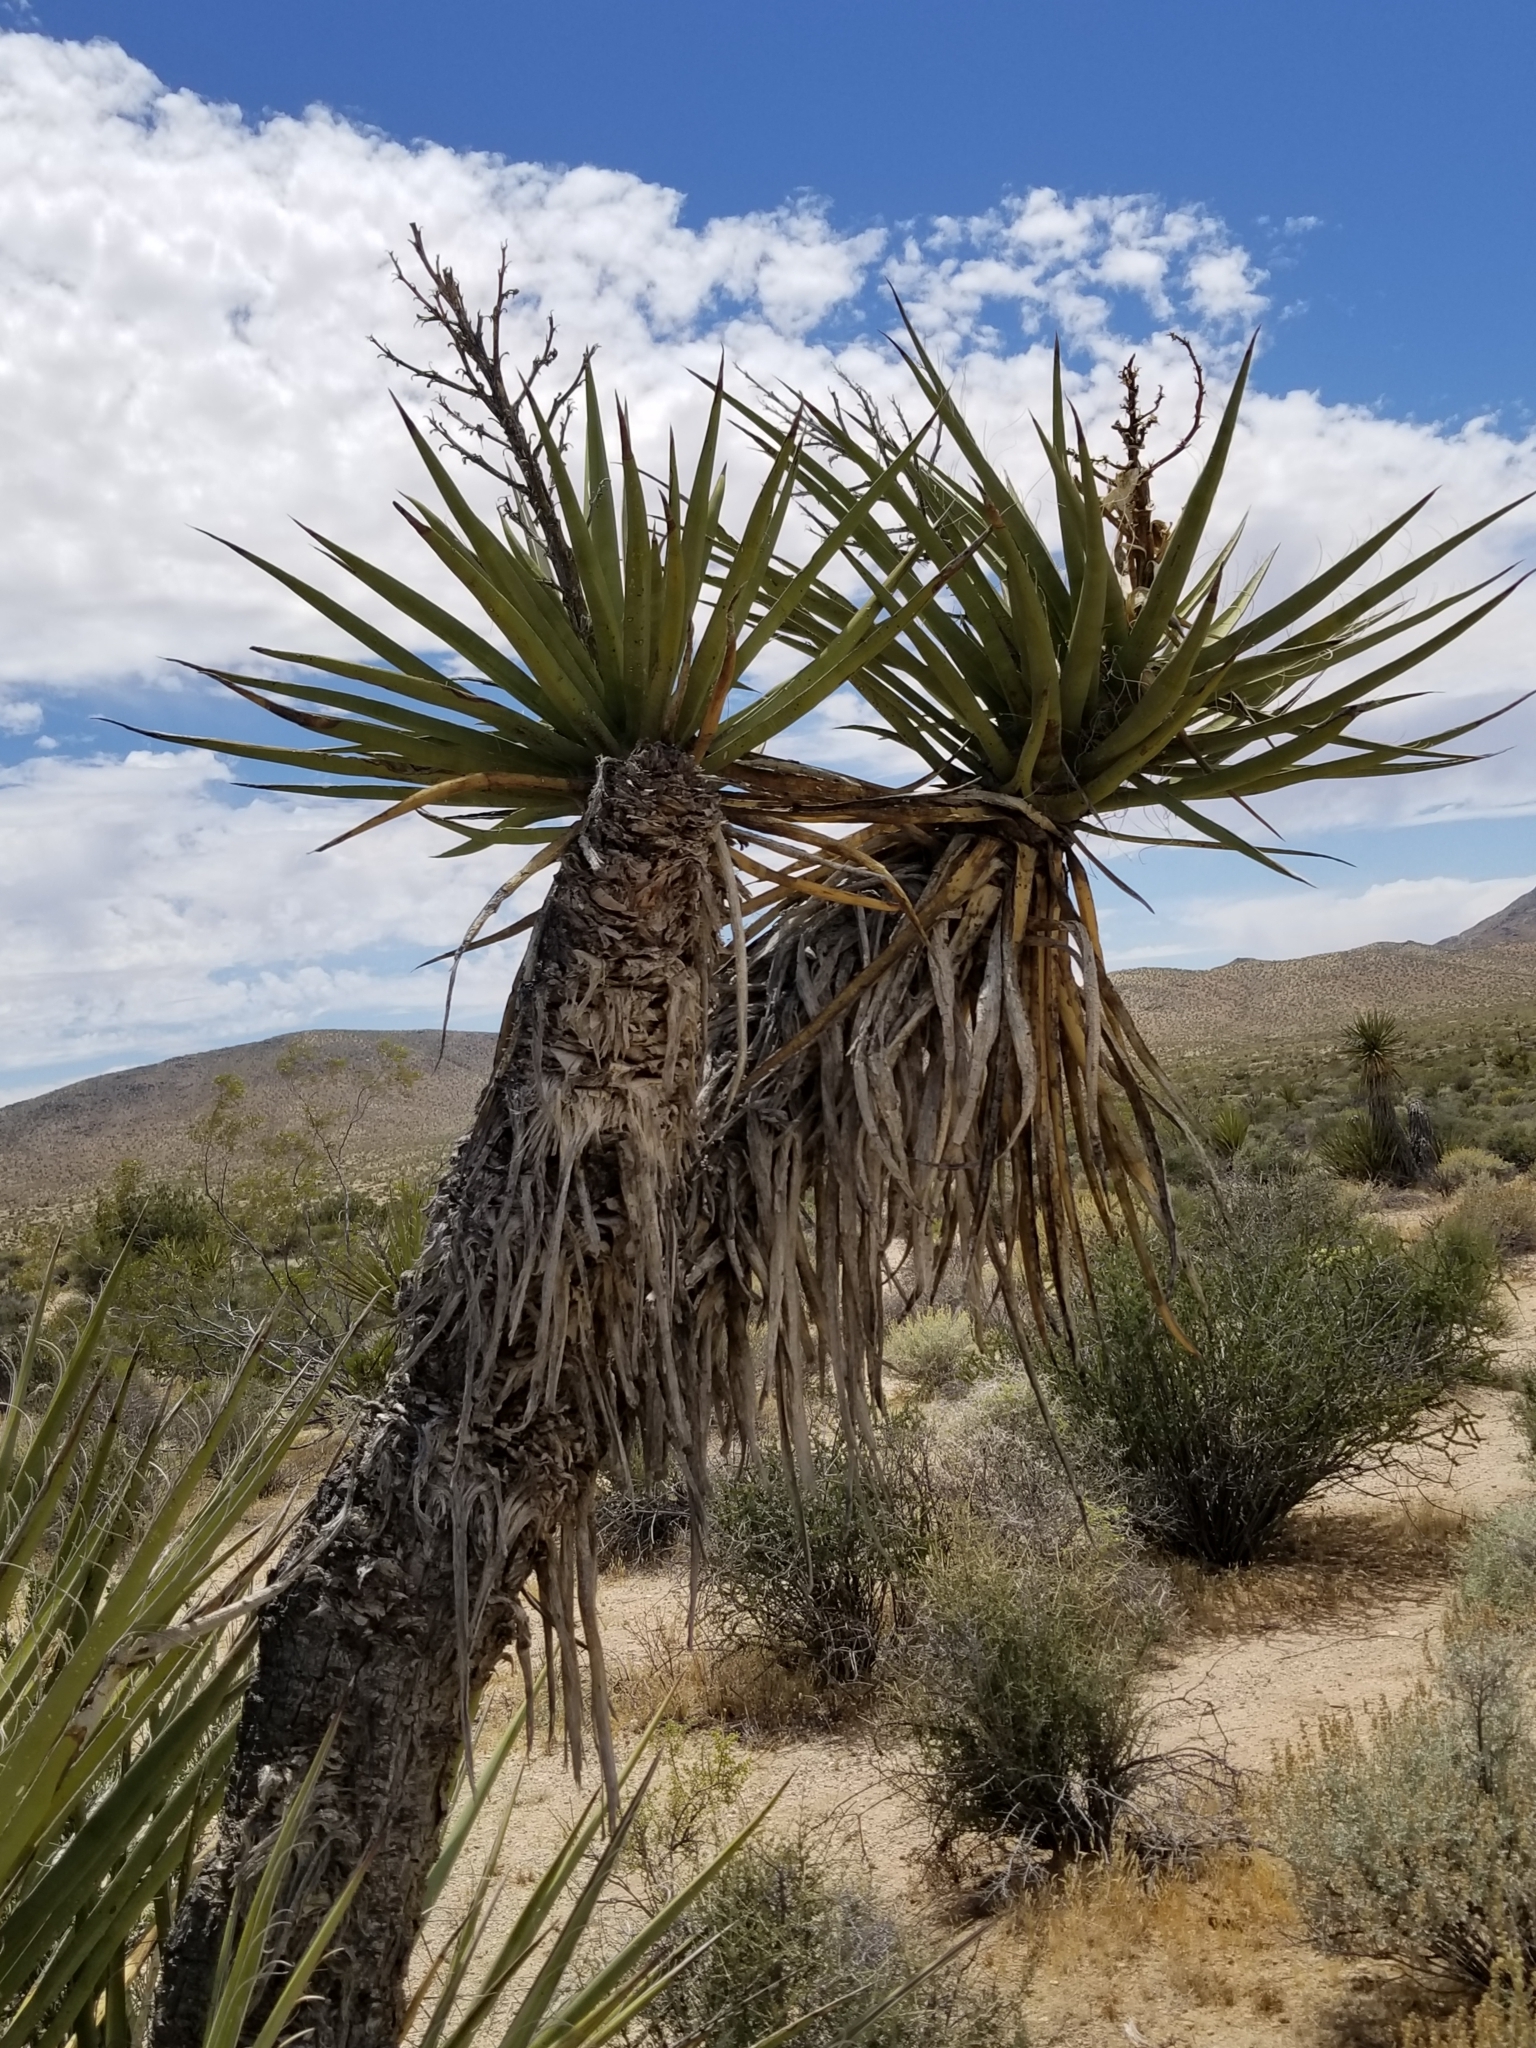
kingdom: Plantae
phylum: Tracheophyta
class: Liliopsida
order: Asparagales
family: Asparagaceae
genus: Yucca
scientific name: Yucca schidigera
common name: Mojave yucca
